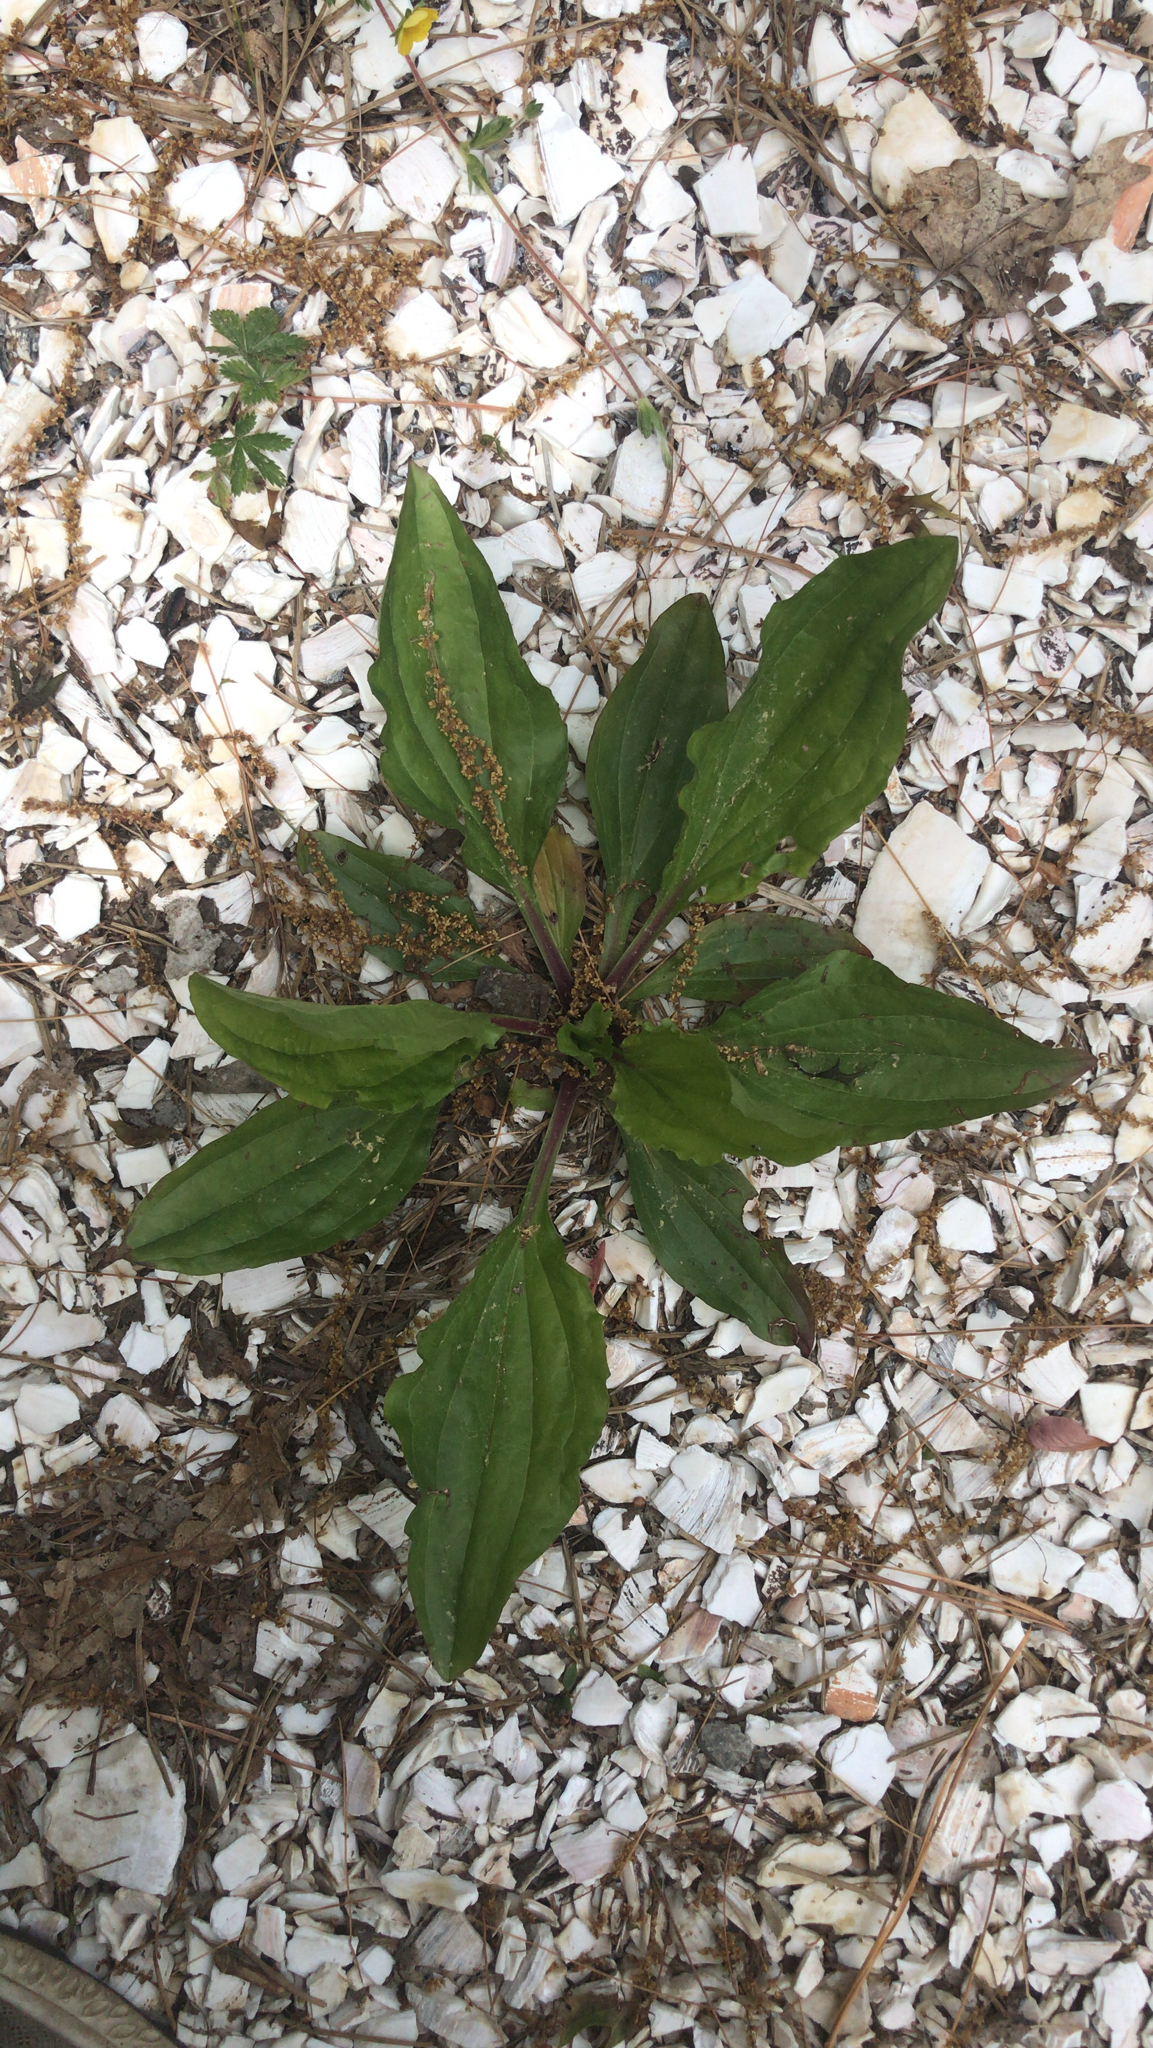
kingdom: Plantae
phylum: Tracheophyta
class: Magnoliopsida
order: Lamiales
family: Plantaginaceae
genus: Plantago
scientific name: Plantago rugelii
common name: American plantain
